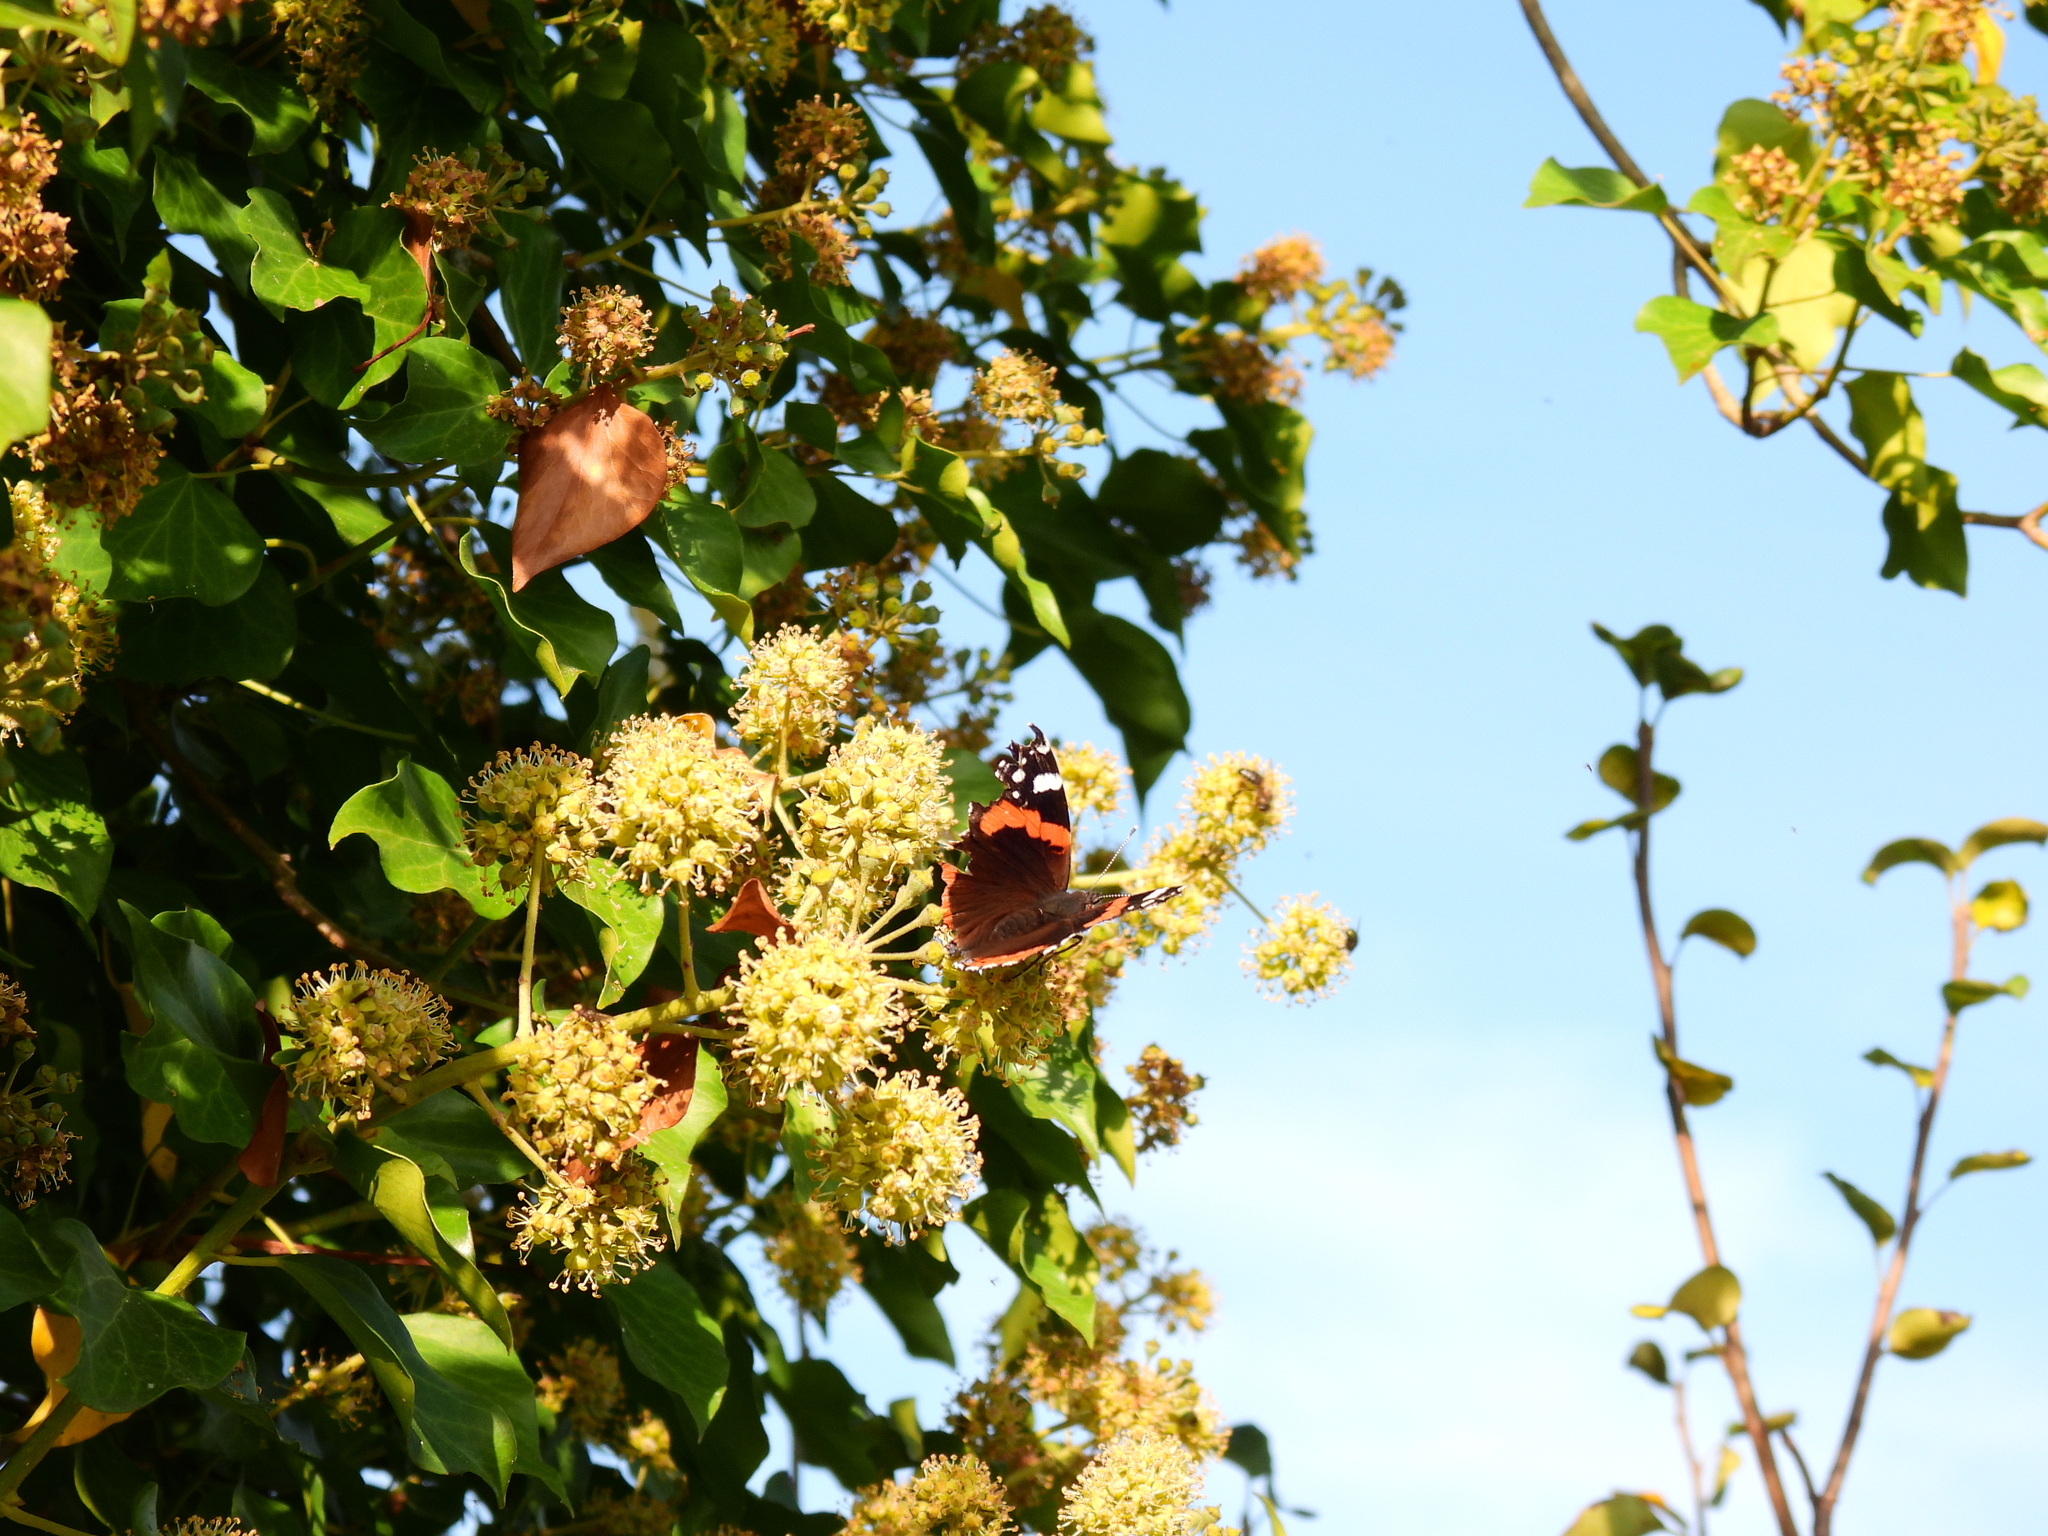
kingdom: Animalia
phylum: Arthropoda
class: Insecta
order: Lepidoptera
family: Nymphalidae
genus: Vanessa
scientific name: Vanessa atalanta
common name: Red admiral
